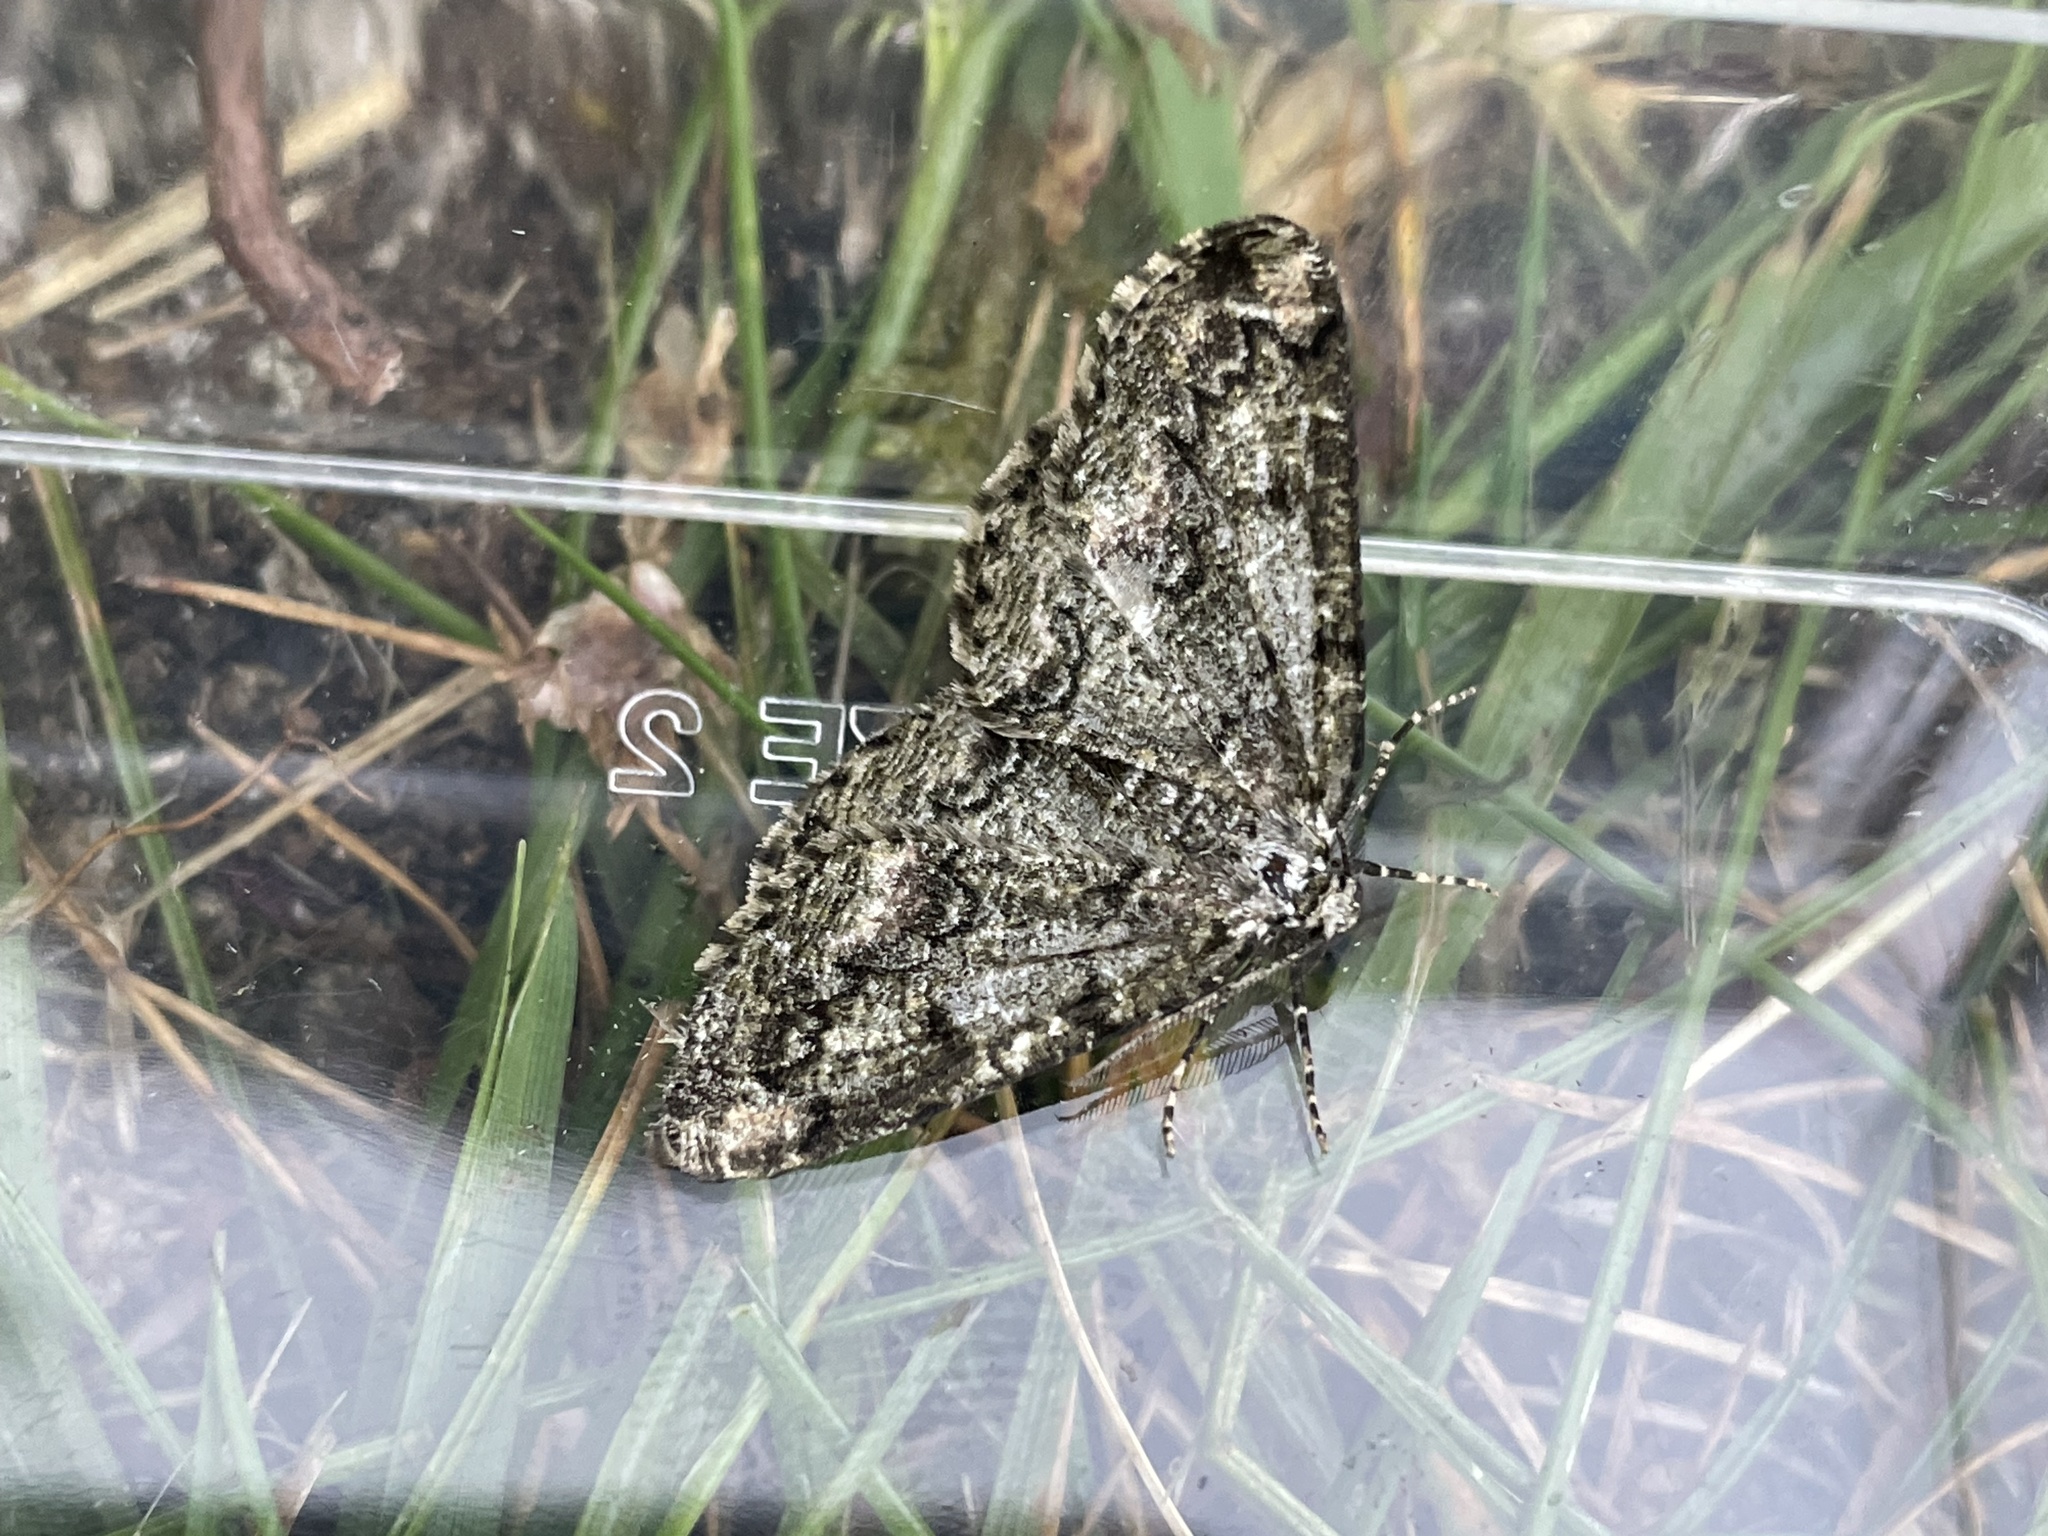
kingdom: Animalia
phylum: Arthropoda
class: Insecta
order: Lepidoptera
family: Geometridae
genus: Cleorodes
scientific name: Cleorodes lichenaria
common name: Brussels lace
